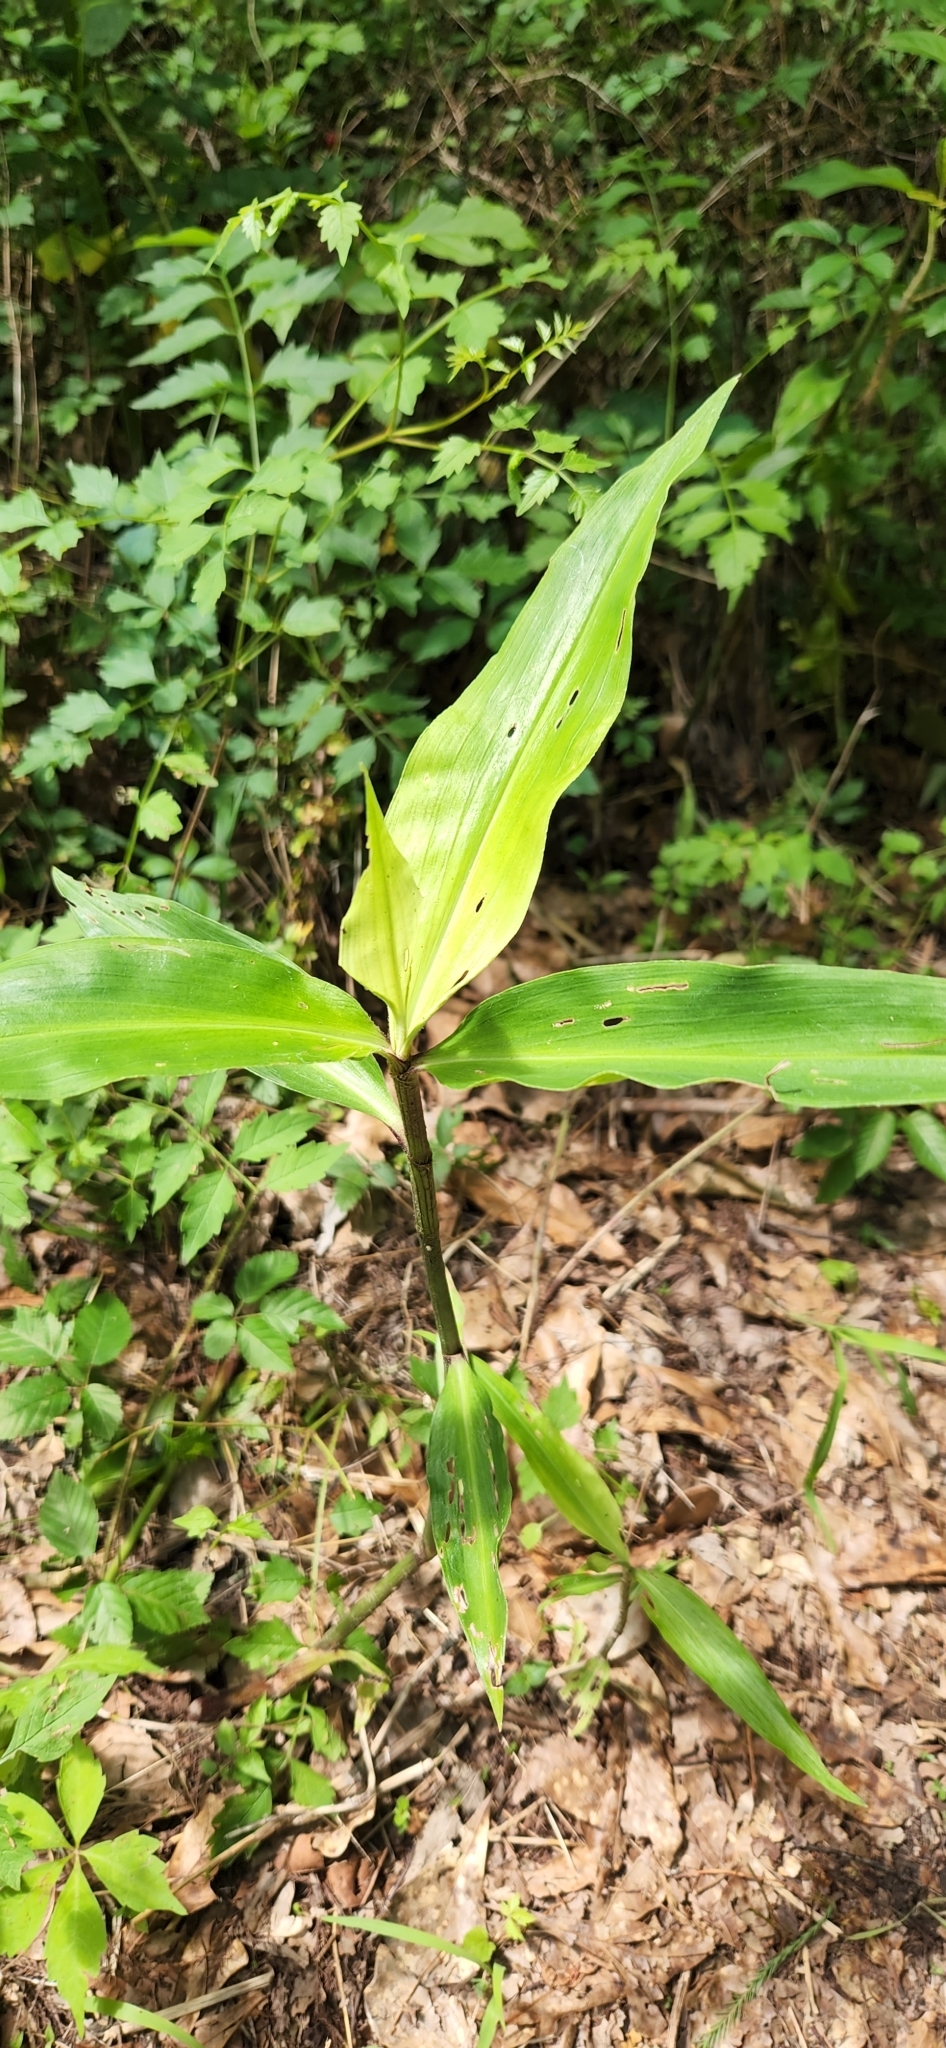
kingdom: Plantae
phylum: Tracheophyta
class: Liliopsida
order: Commelinales
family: Commelinaceae
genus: Commelina
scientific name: Commelina virginica
